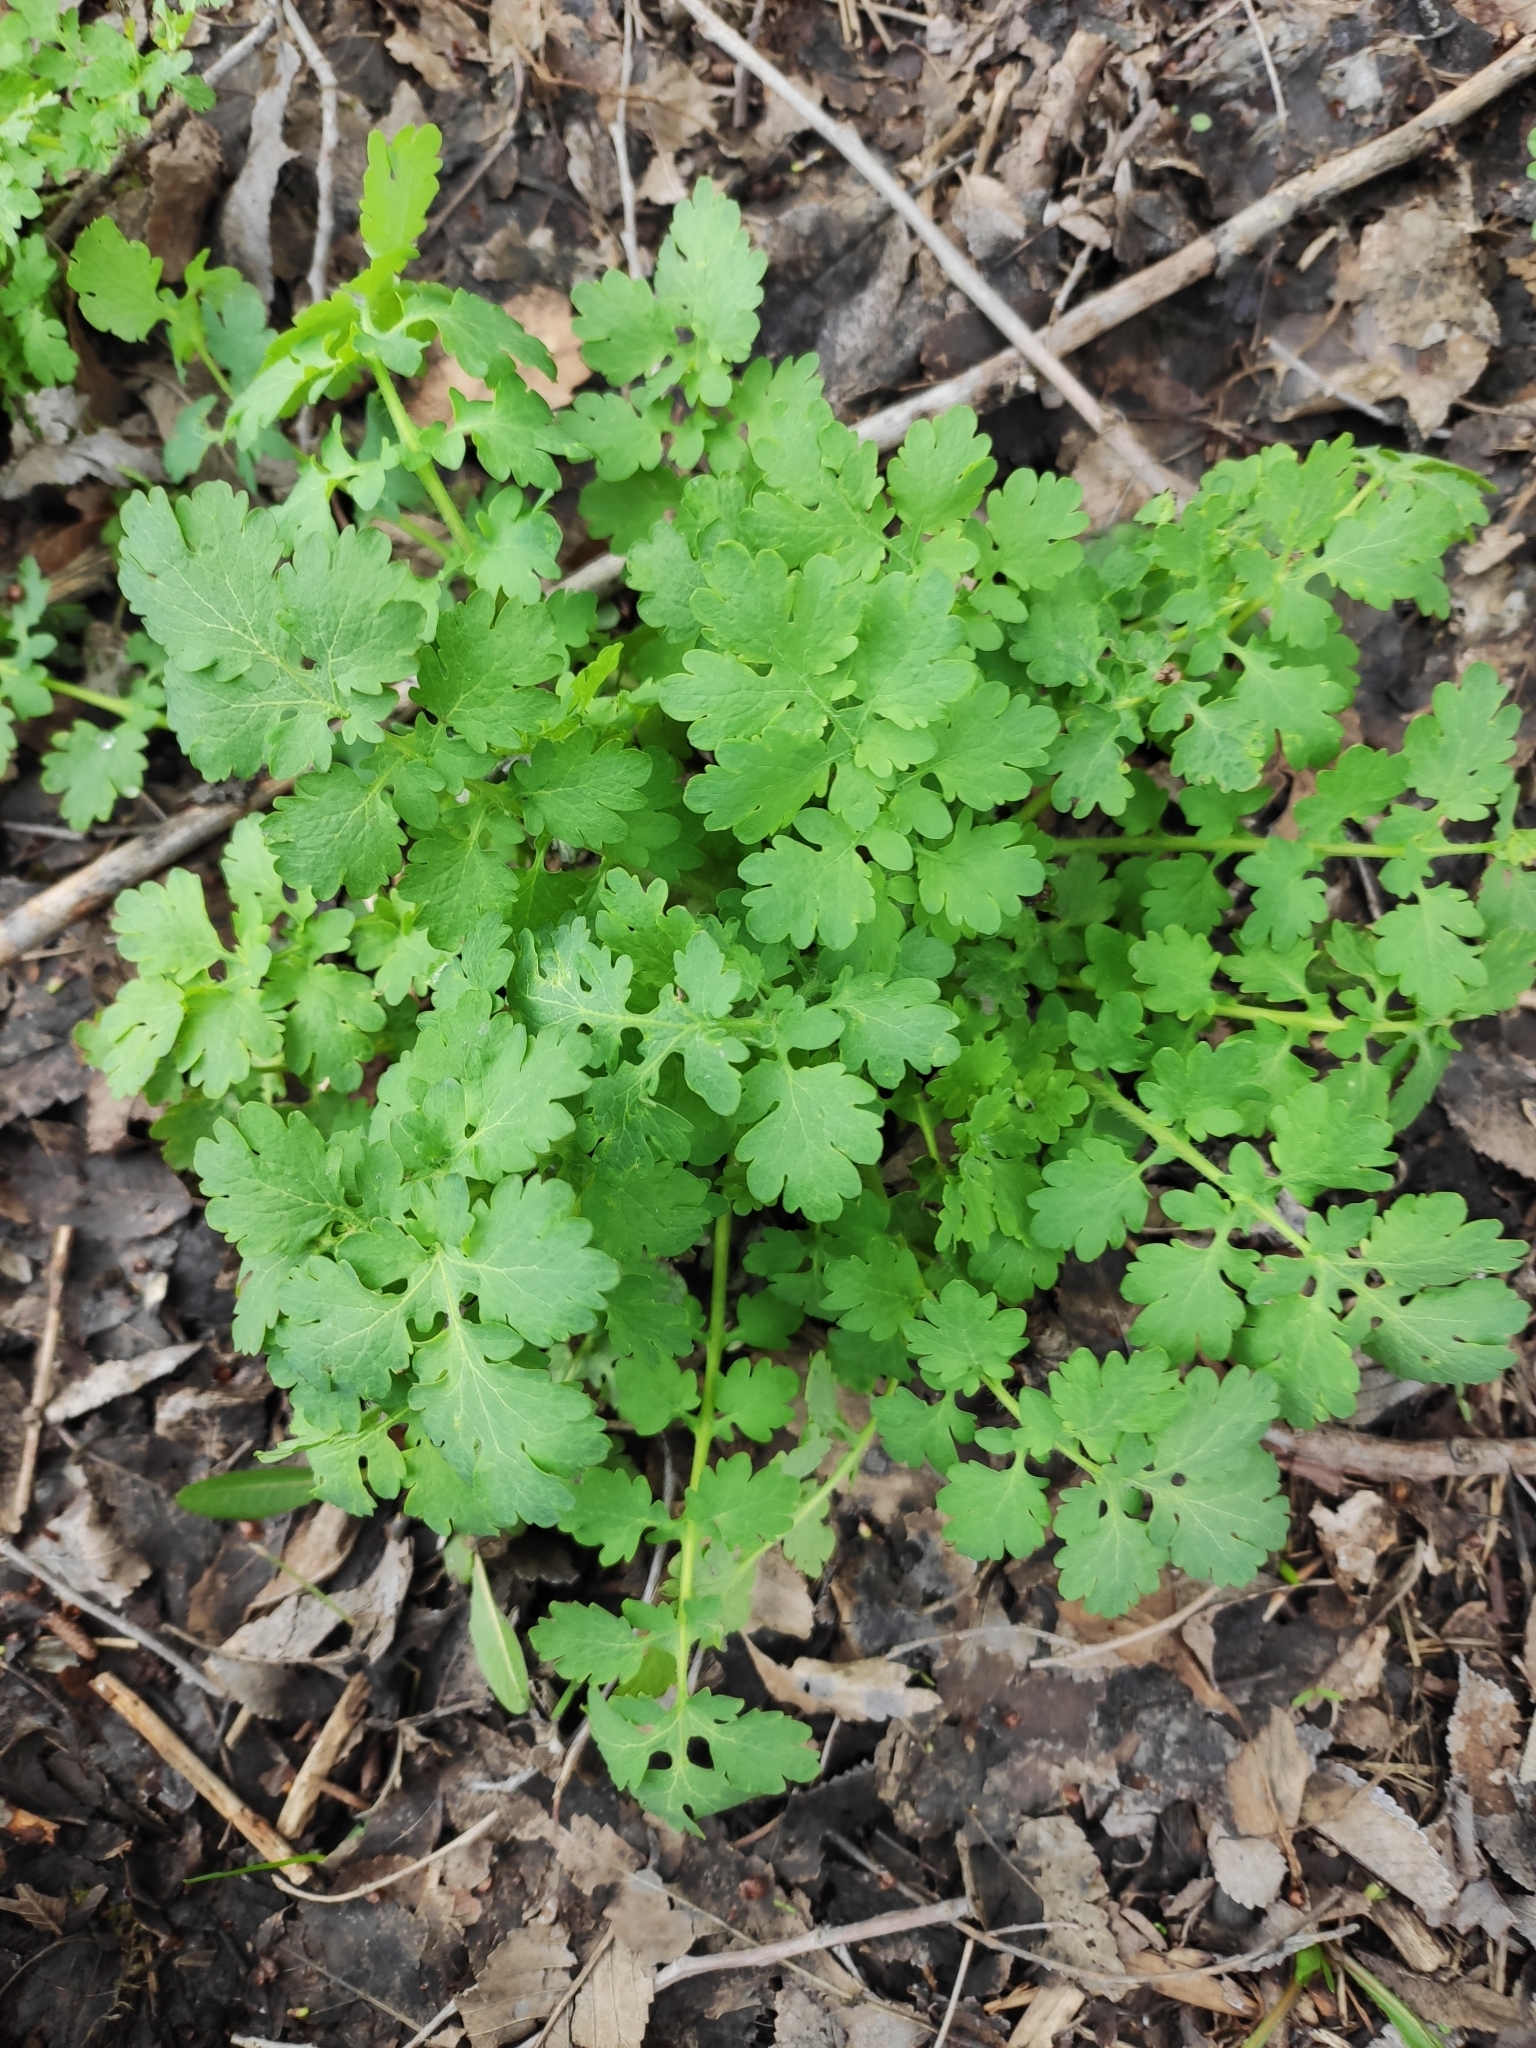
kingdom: Plantae
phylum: Tracheophyta
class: Magnoliopsida
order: Ranunculales
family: Papaveraceae
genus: Chelidonium
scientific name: Chelidonium majus
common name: Greater celandine
